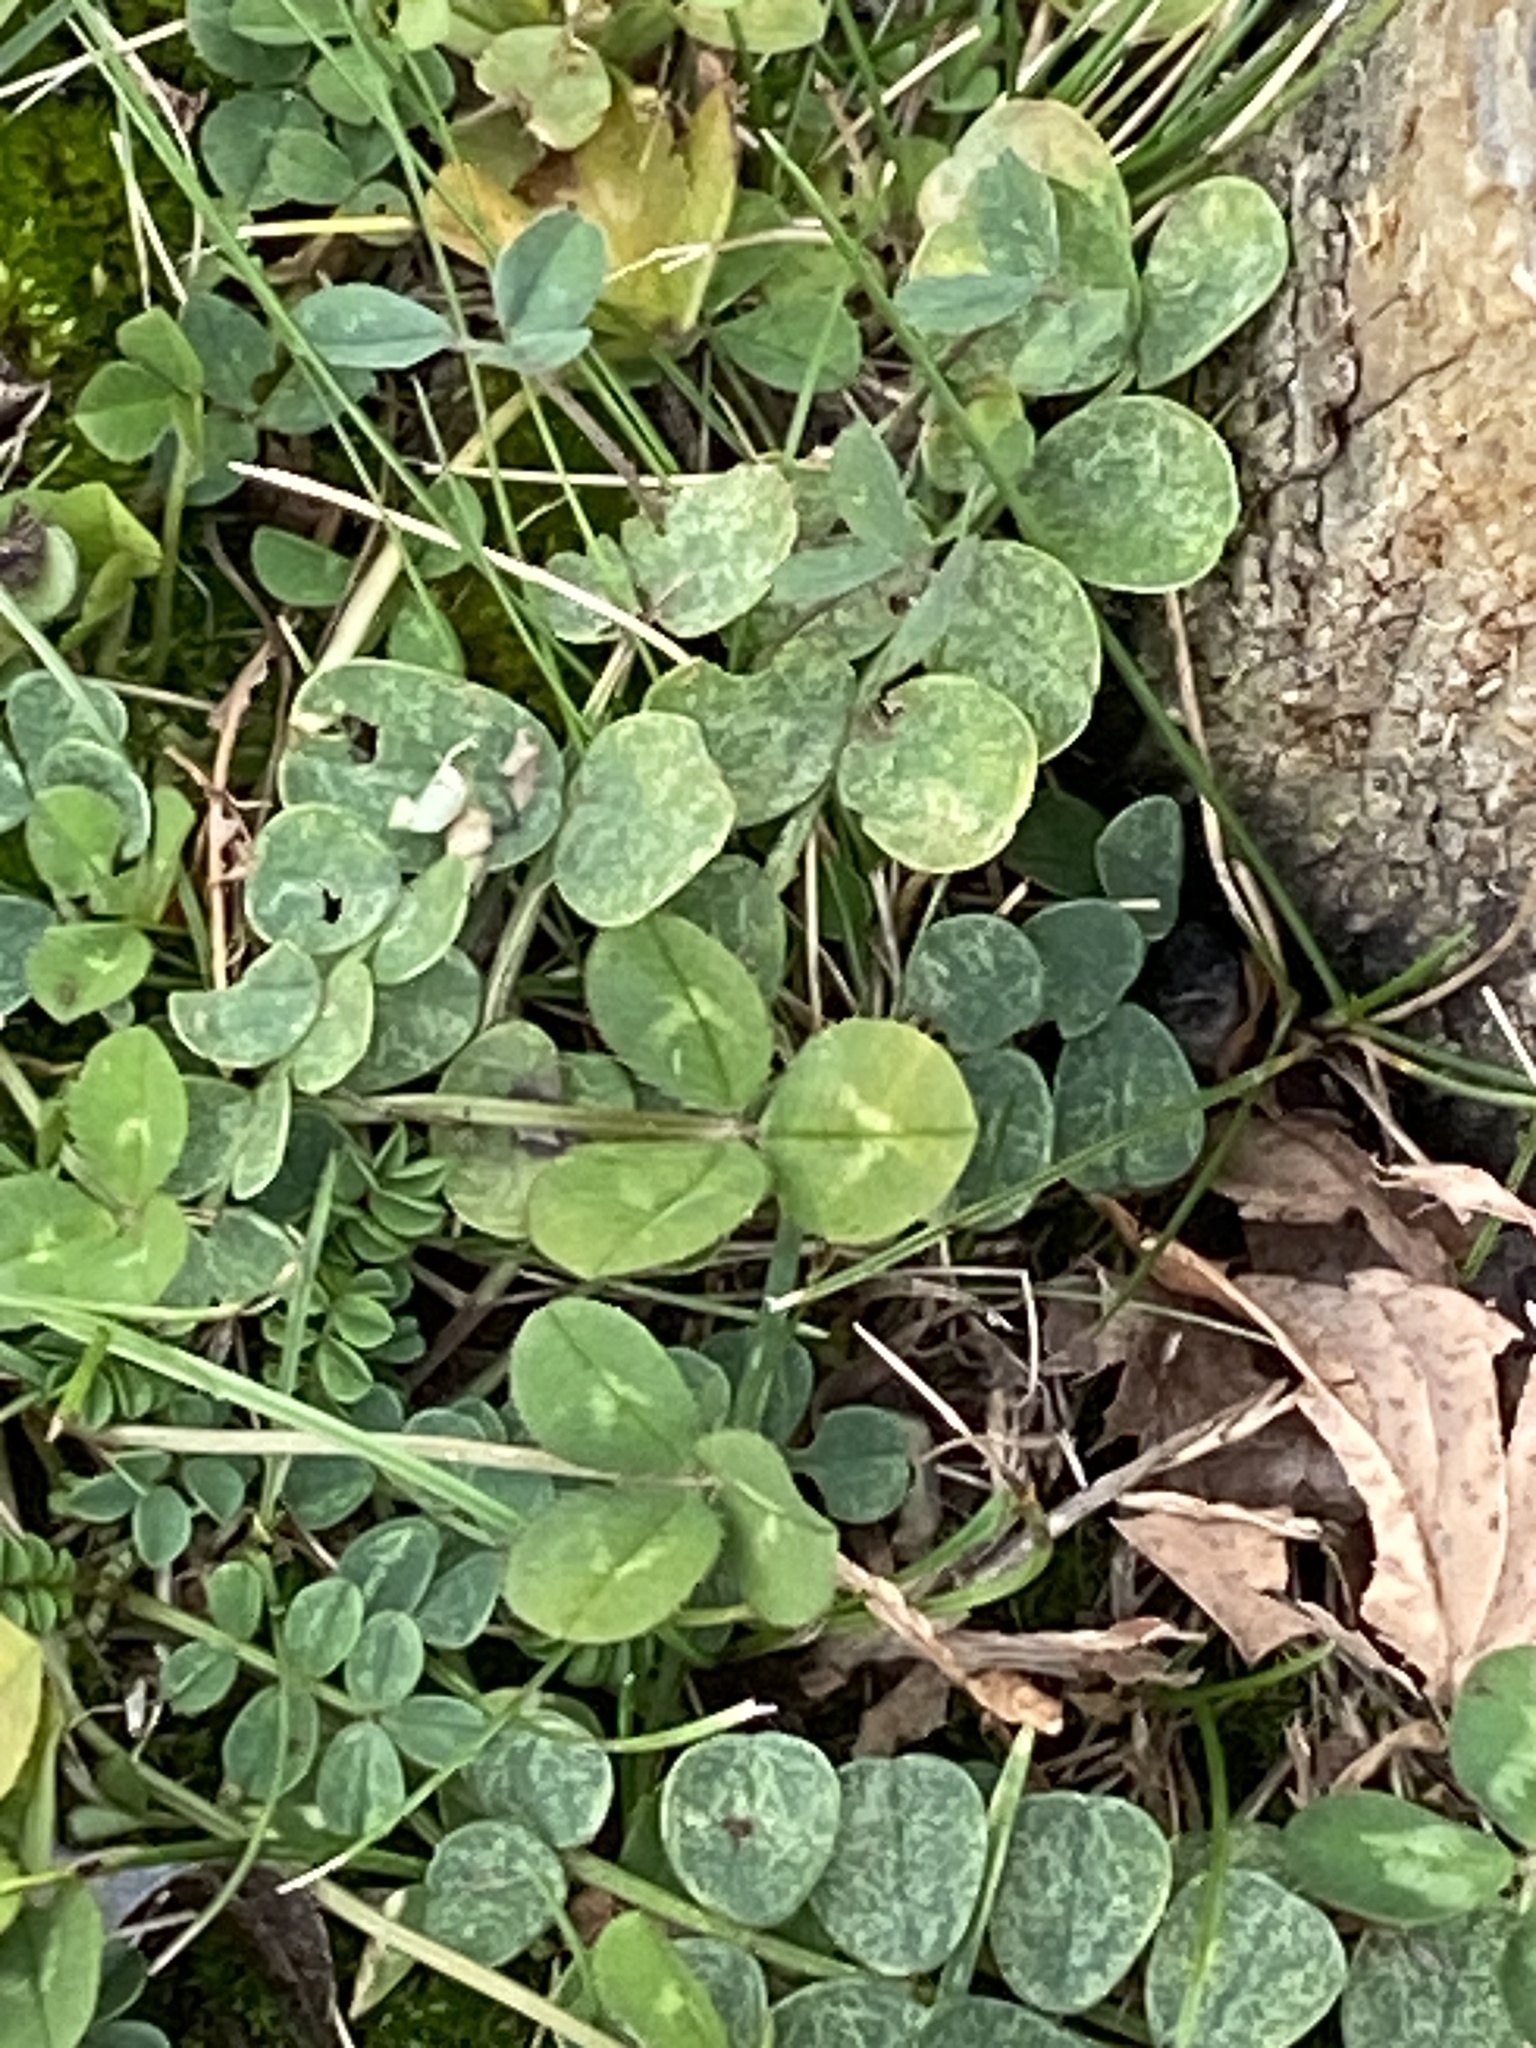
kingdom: Plantae
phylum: Tracheophyta
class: Magnoliopsida
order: Fabales
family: Fabaceae
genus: Trifolium
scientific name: Trifolium repens
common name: White clover
